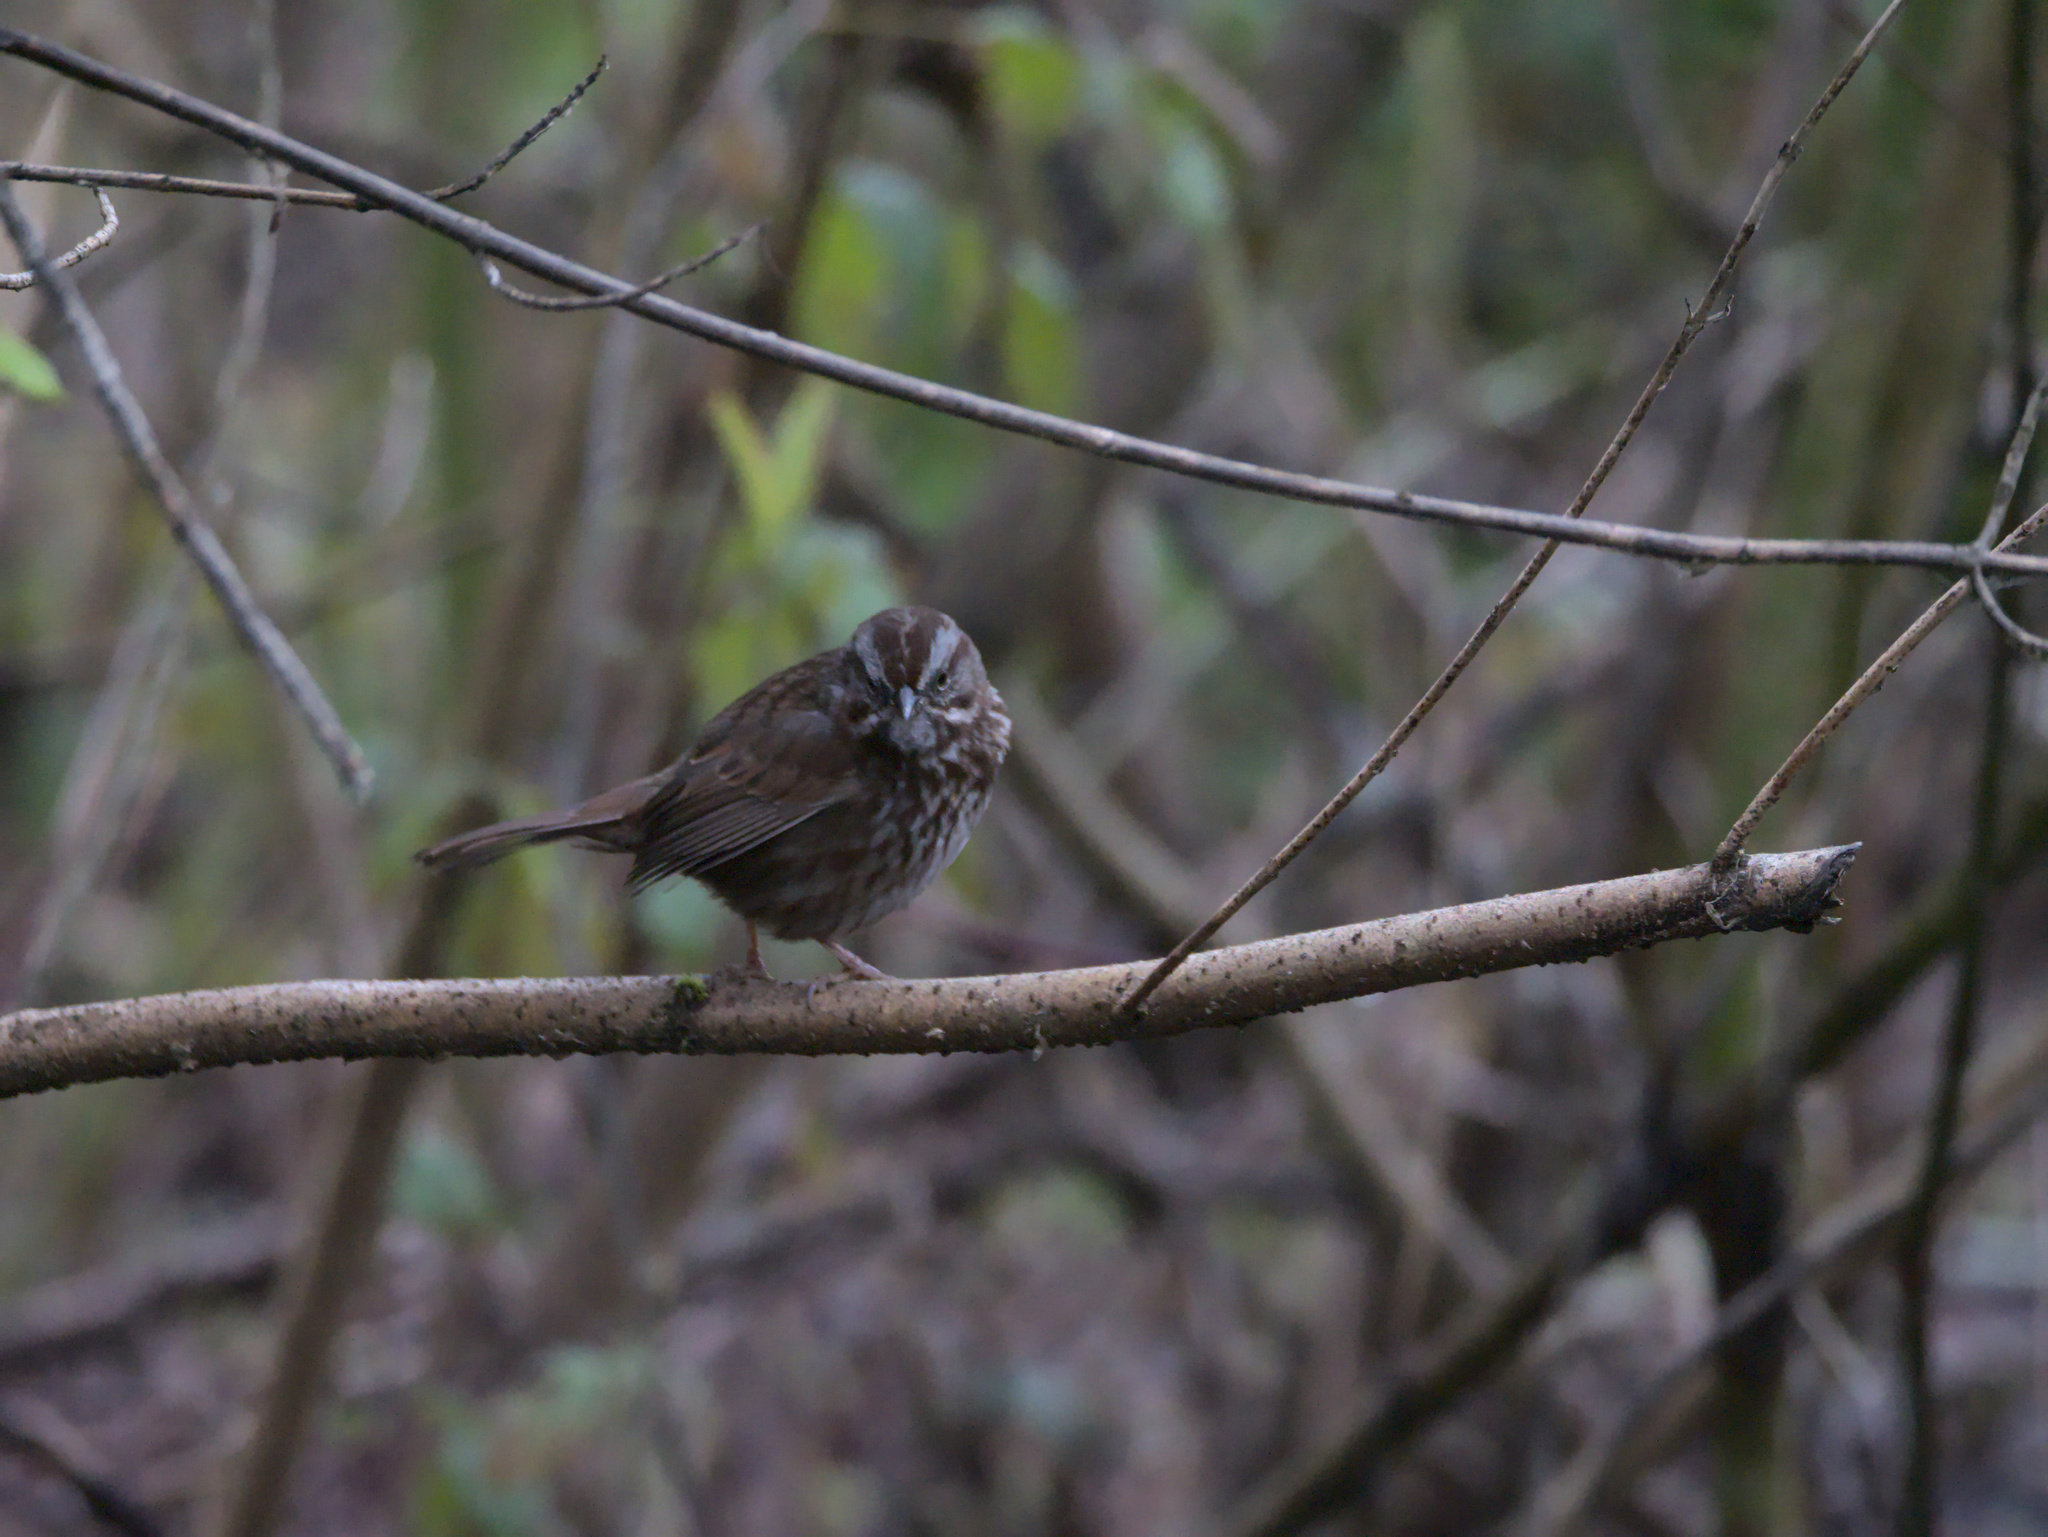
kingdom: Animalia
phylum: Chordata
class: Aves
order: Passeriformes
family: Passerellidae
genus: Melospiza
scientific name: Melospiza melodia
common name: Song sparrow
